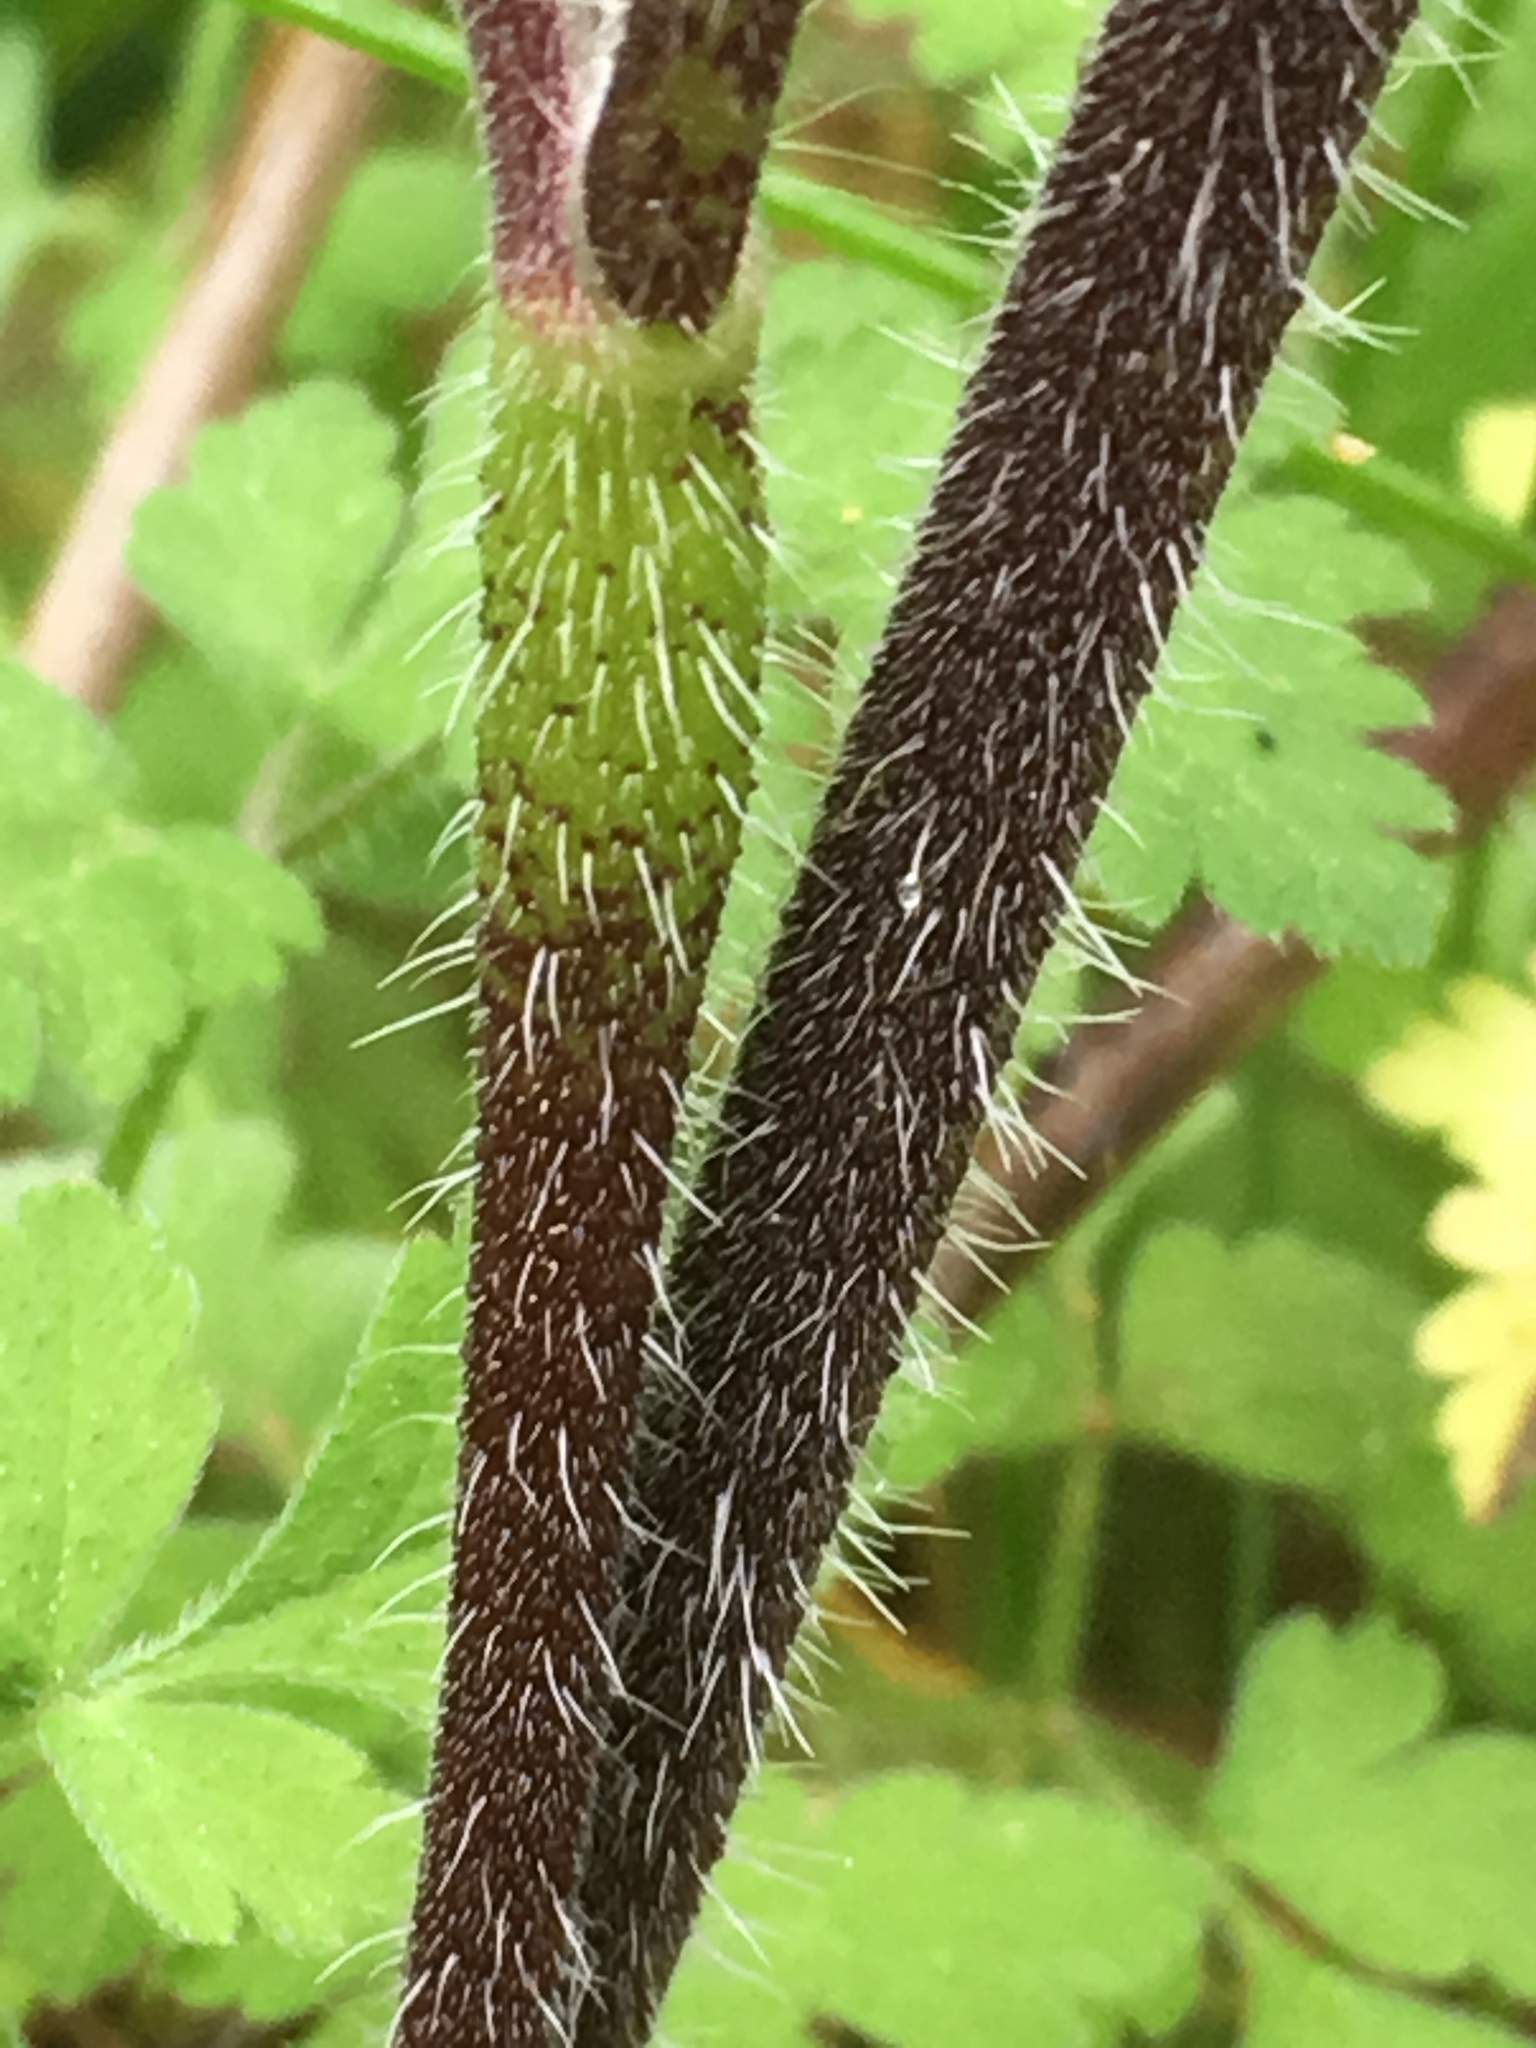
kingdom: Plantae
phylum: Tracheophyta
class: Magnoliopsida
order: Apiales
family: Apiaceae
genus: Chaerophyllum
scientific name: Chaerophyllum temulum
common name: Rough chervil
